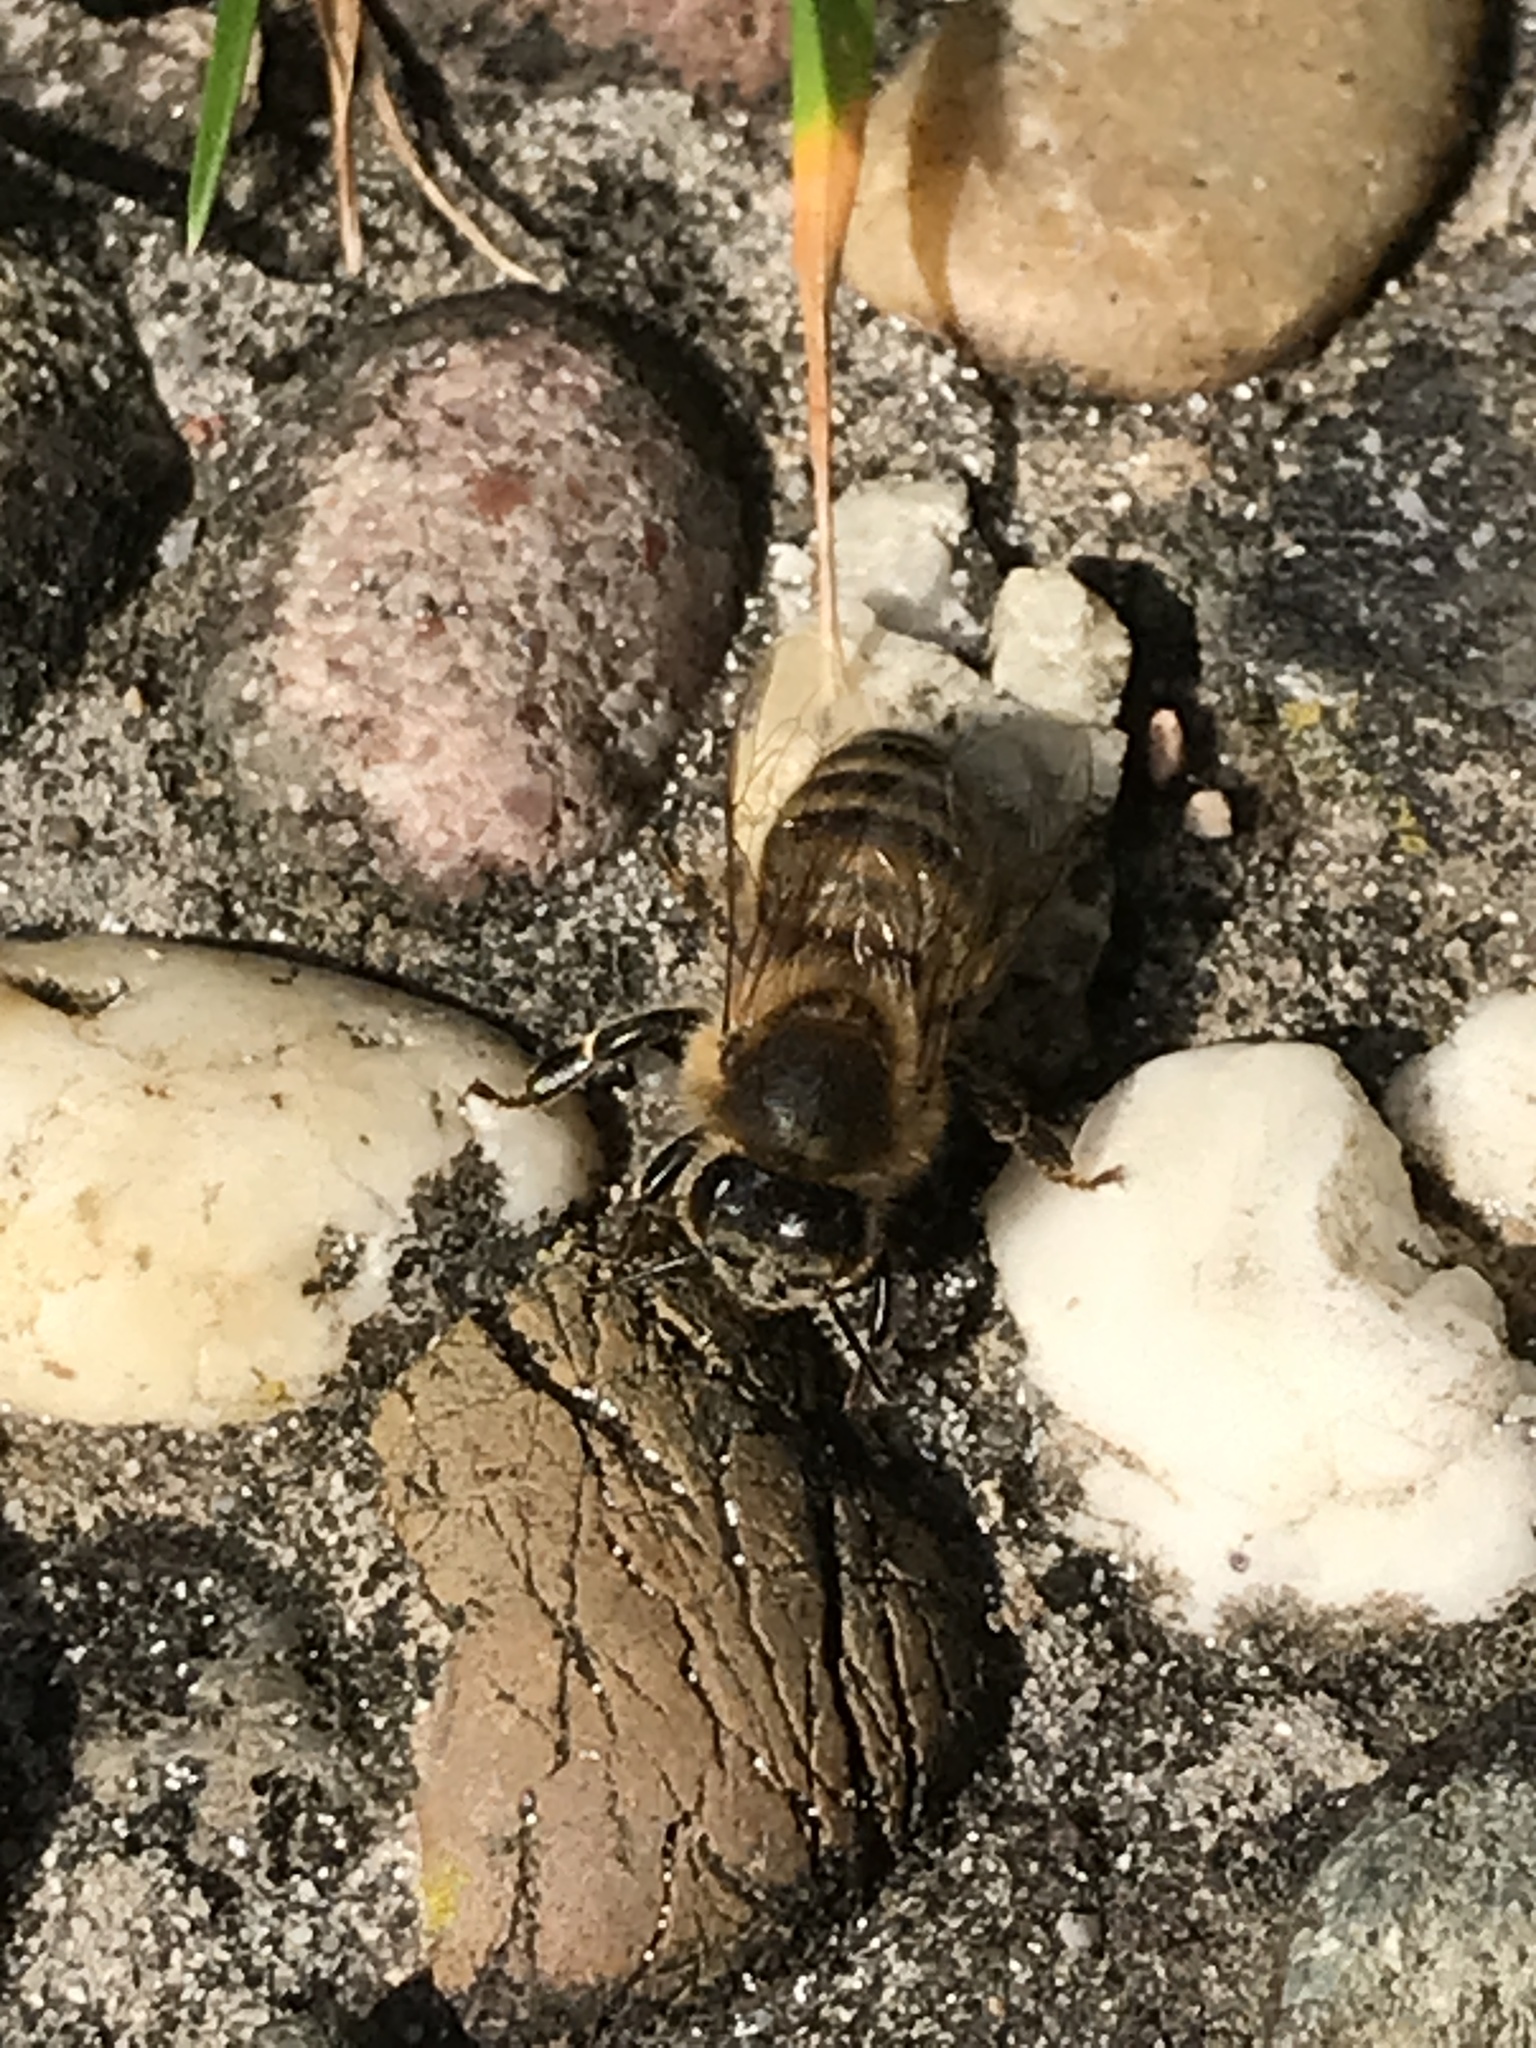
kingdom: Animalia
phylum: Arthropoda
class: Insecta
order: Hymenoptera
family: Apidae
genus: Apis
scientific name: Apis mellifera
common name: Honey bee
